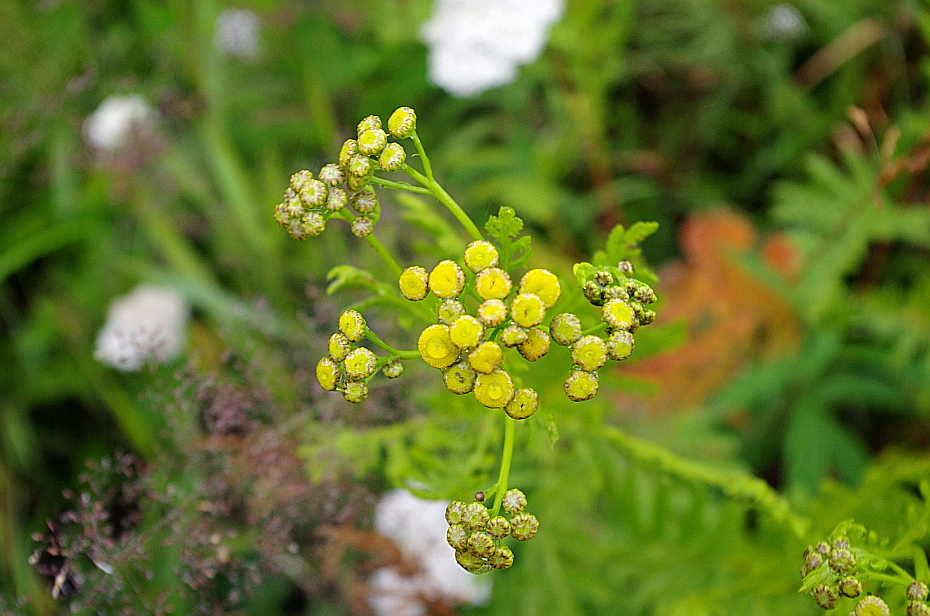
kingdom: Plantae
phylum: Tracheophyta
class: Magnoliopsida
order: Asterales
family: Asteraceae
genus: Tanacetum
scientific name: Tanacetum vulgare
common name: Common tansy
